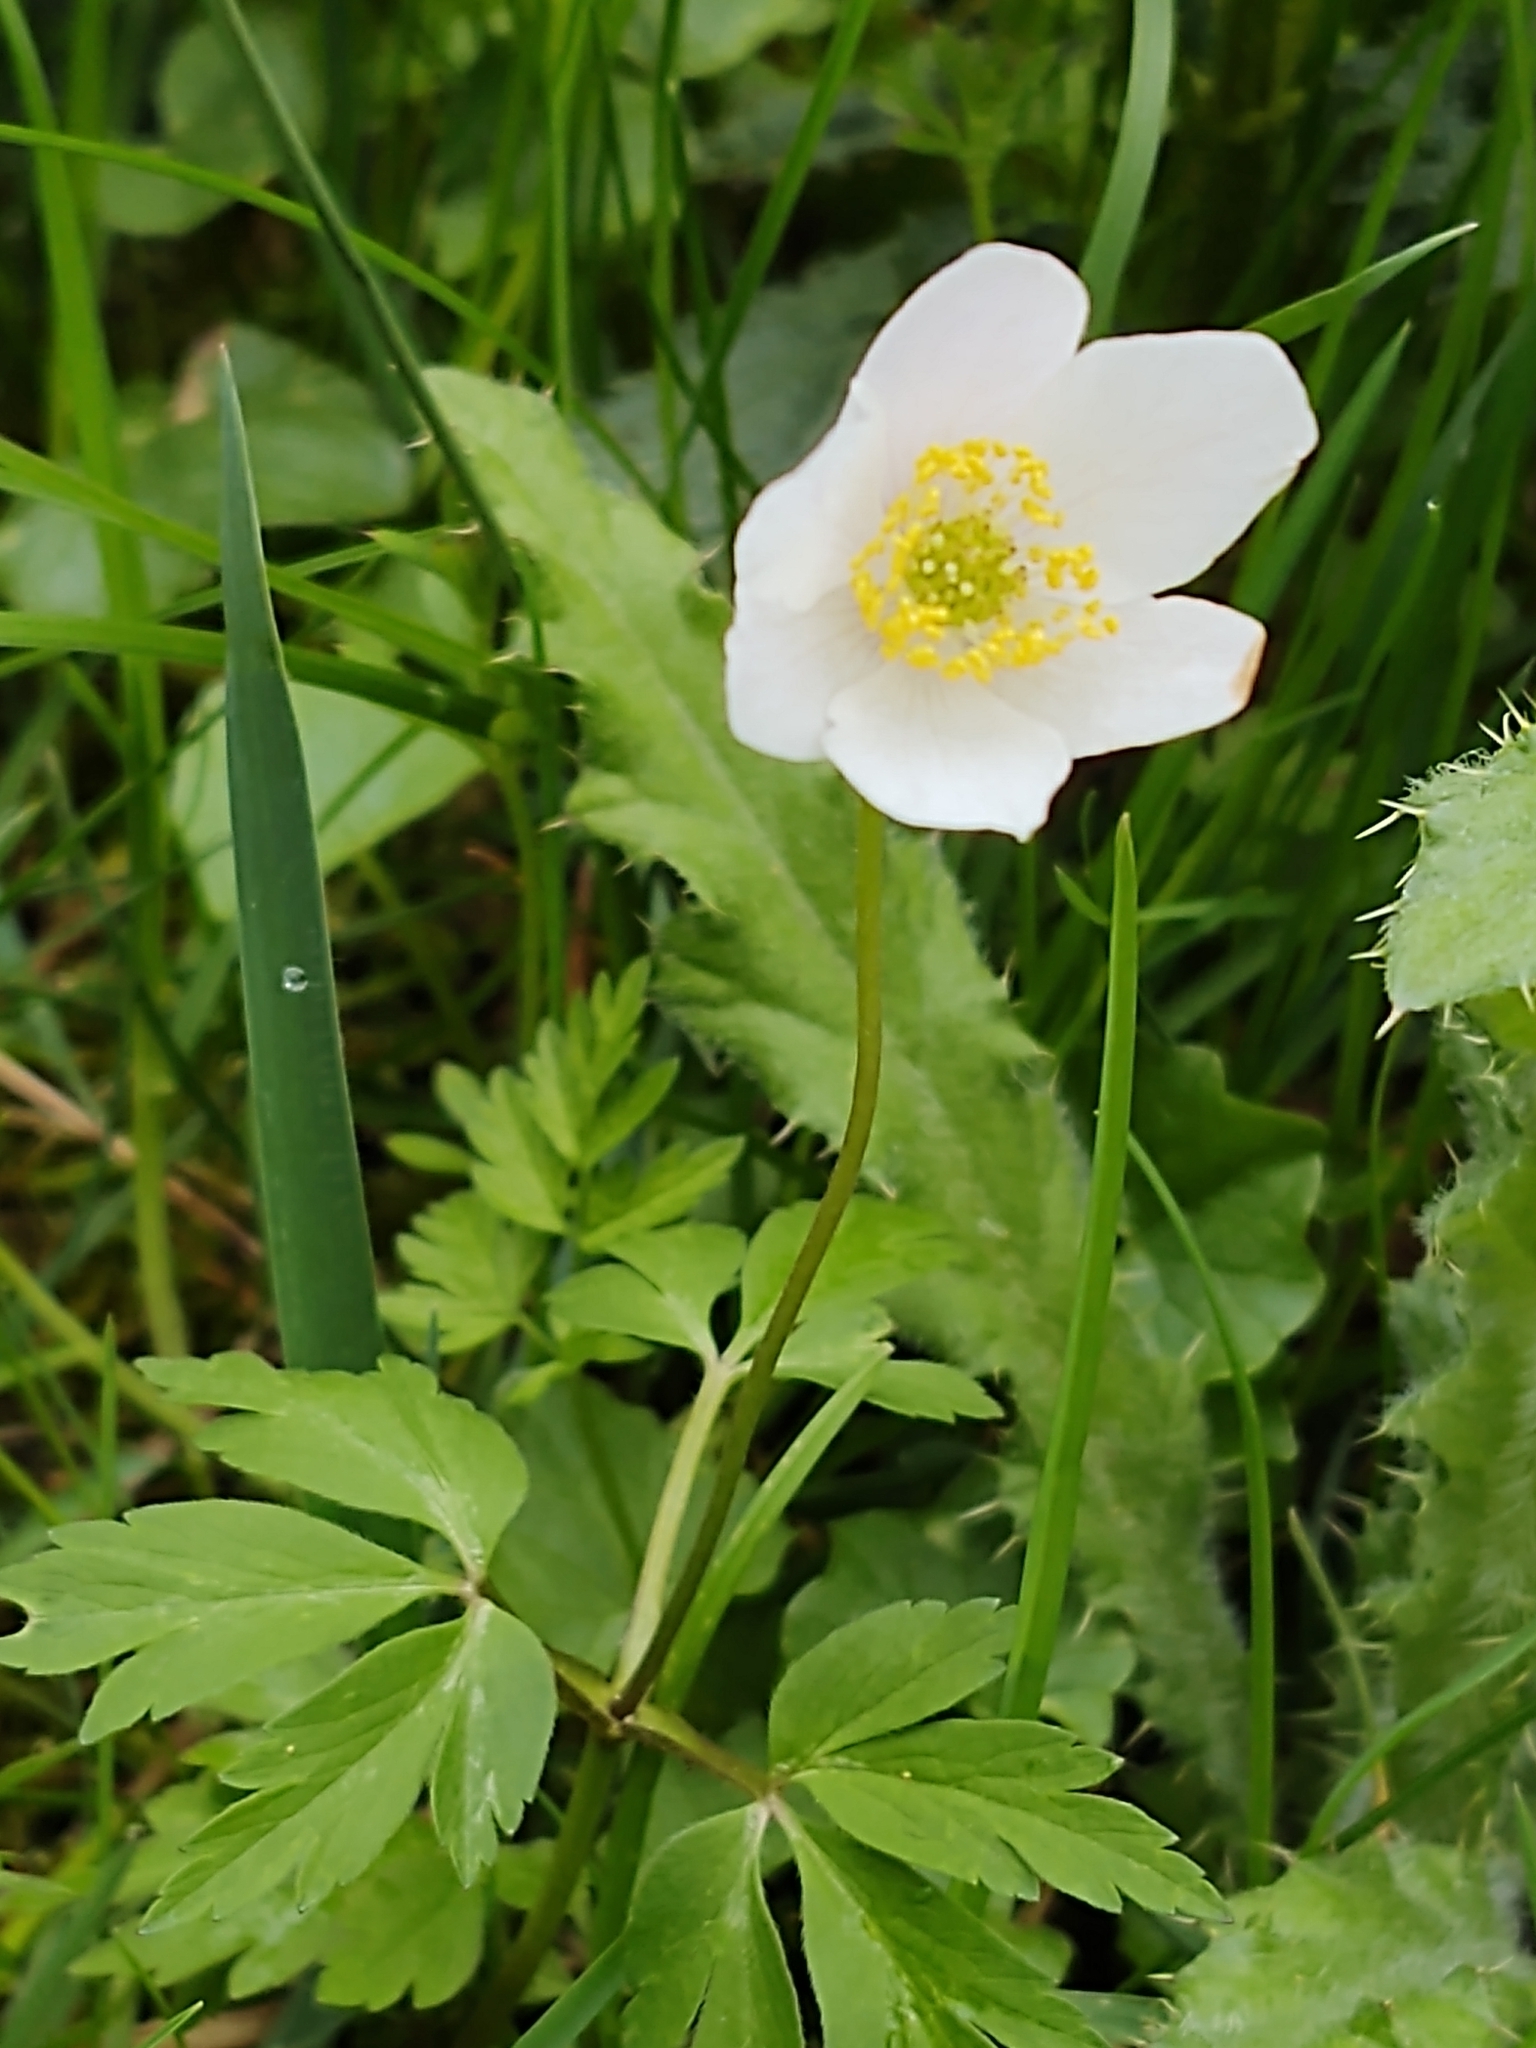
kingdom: Plantae
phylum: Tracheophyta
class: Magnoliopsida
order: Ranunculales
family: Ranunculaceae
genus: Anemone
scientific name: Anemone nemorosa
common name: Wood anemone
